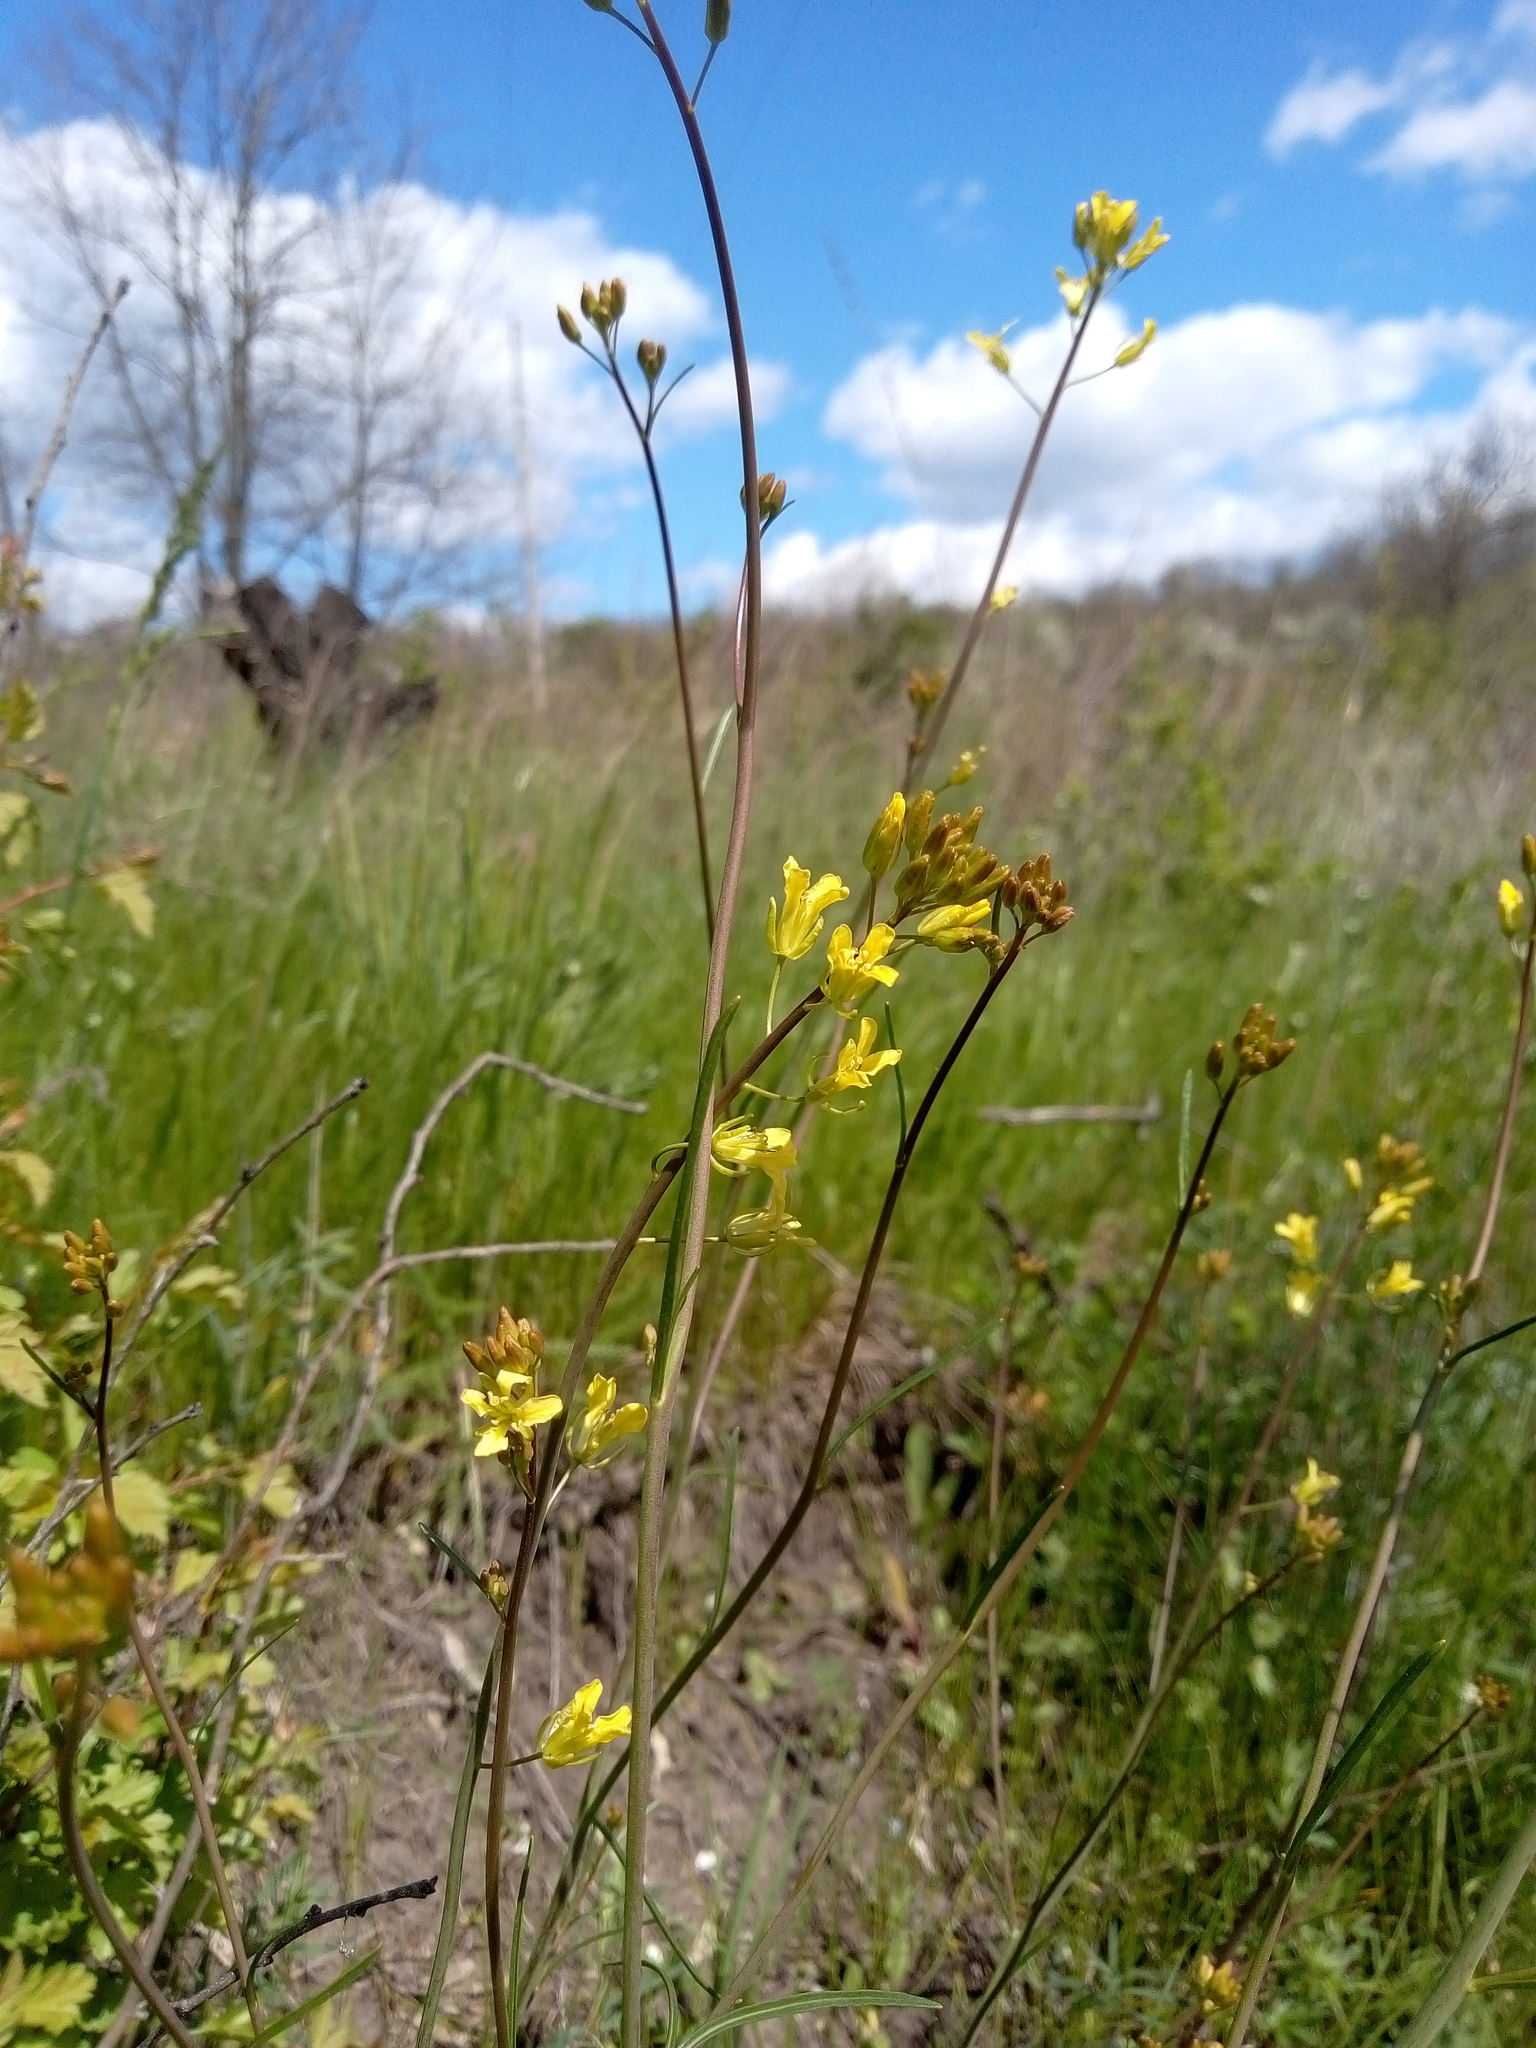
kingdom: Plantae
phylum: Tracheophyta
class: Magnoliopsida
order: Brassicales
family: Brassicaceae
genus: Sisymbrium
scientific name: Sisymbrium polymorphum
